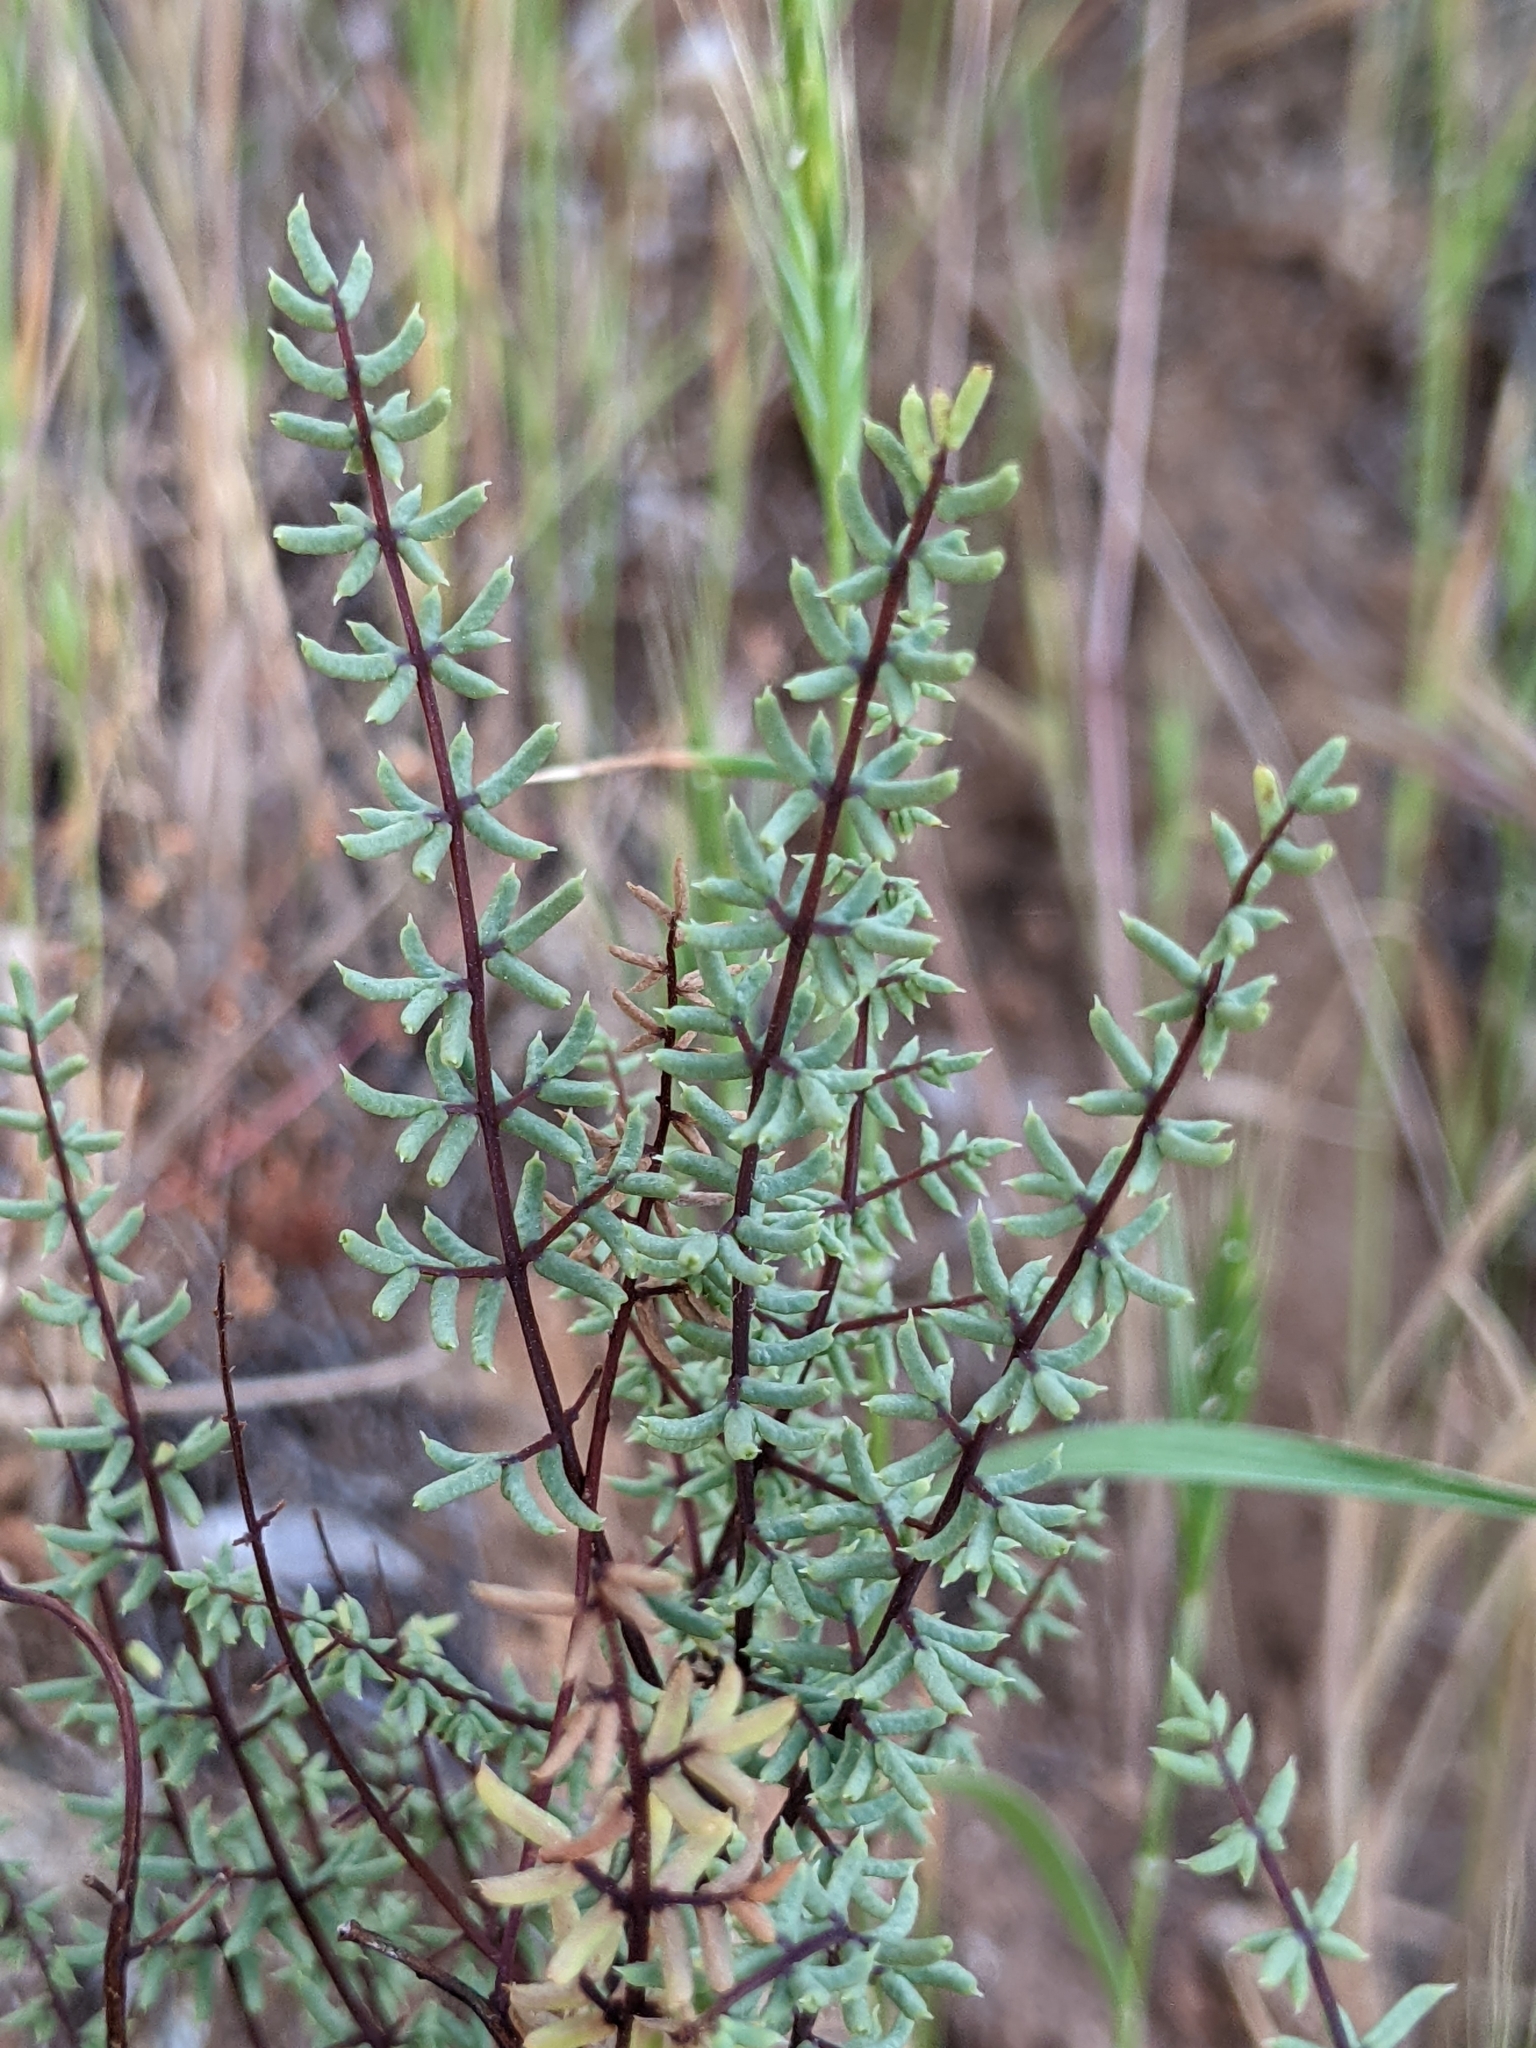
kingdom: Plantae
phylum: Tracheophyta
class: Polypodiopsida
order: Polypodiales
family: Pteridaceae
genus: Pellaea
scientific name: Pellaea mucronata
